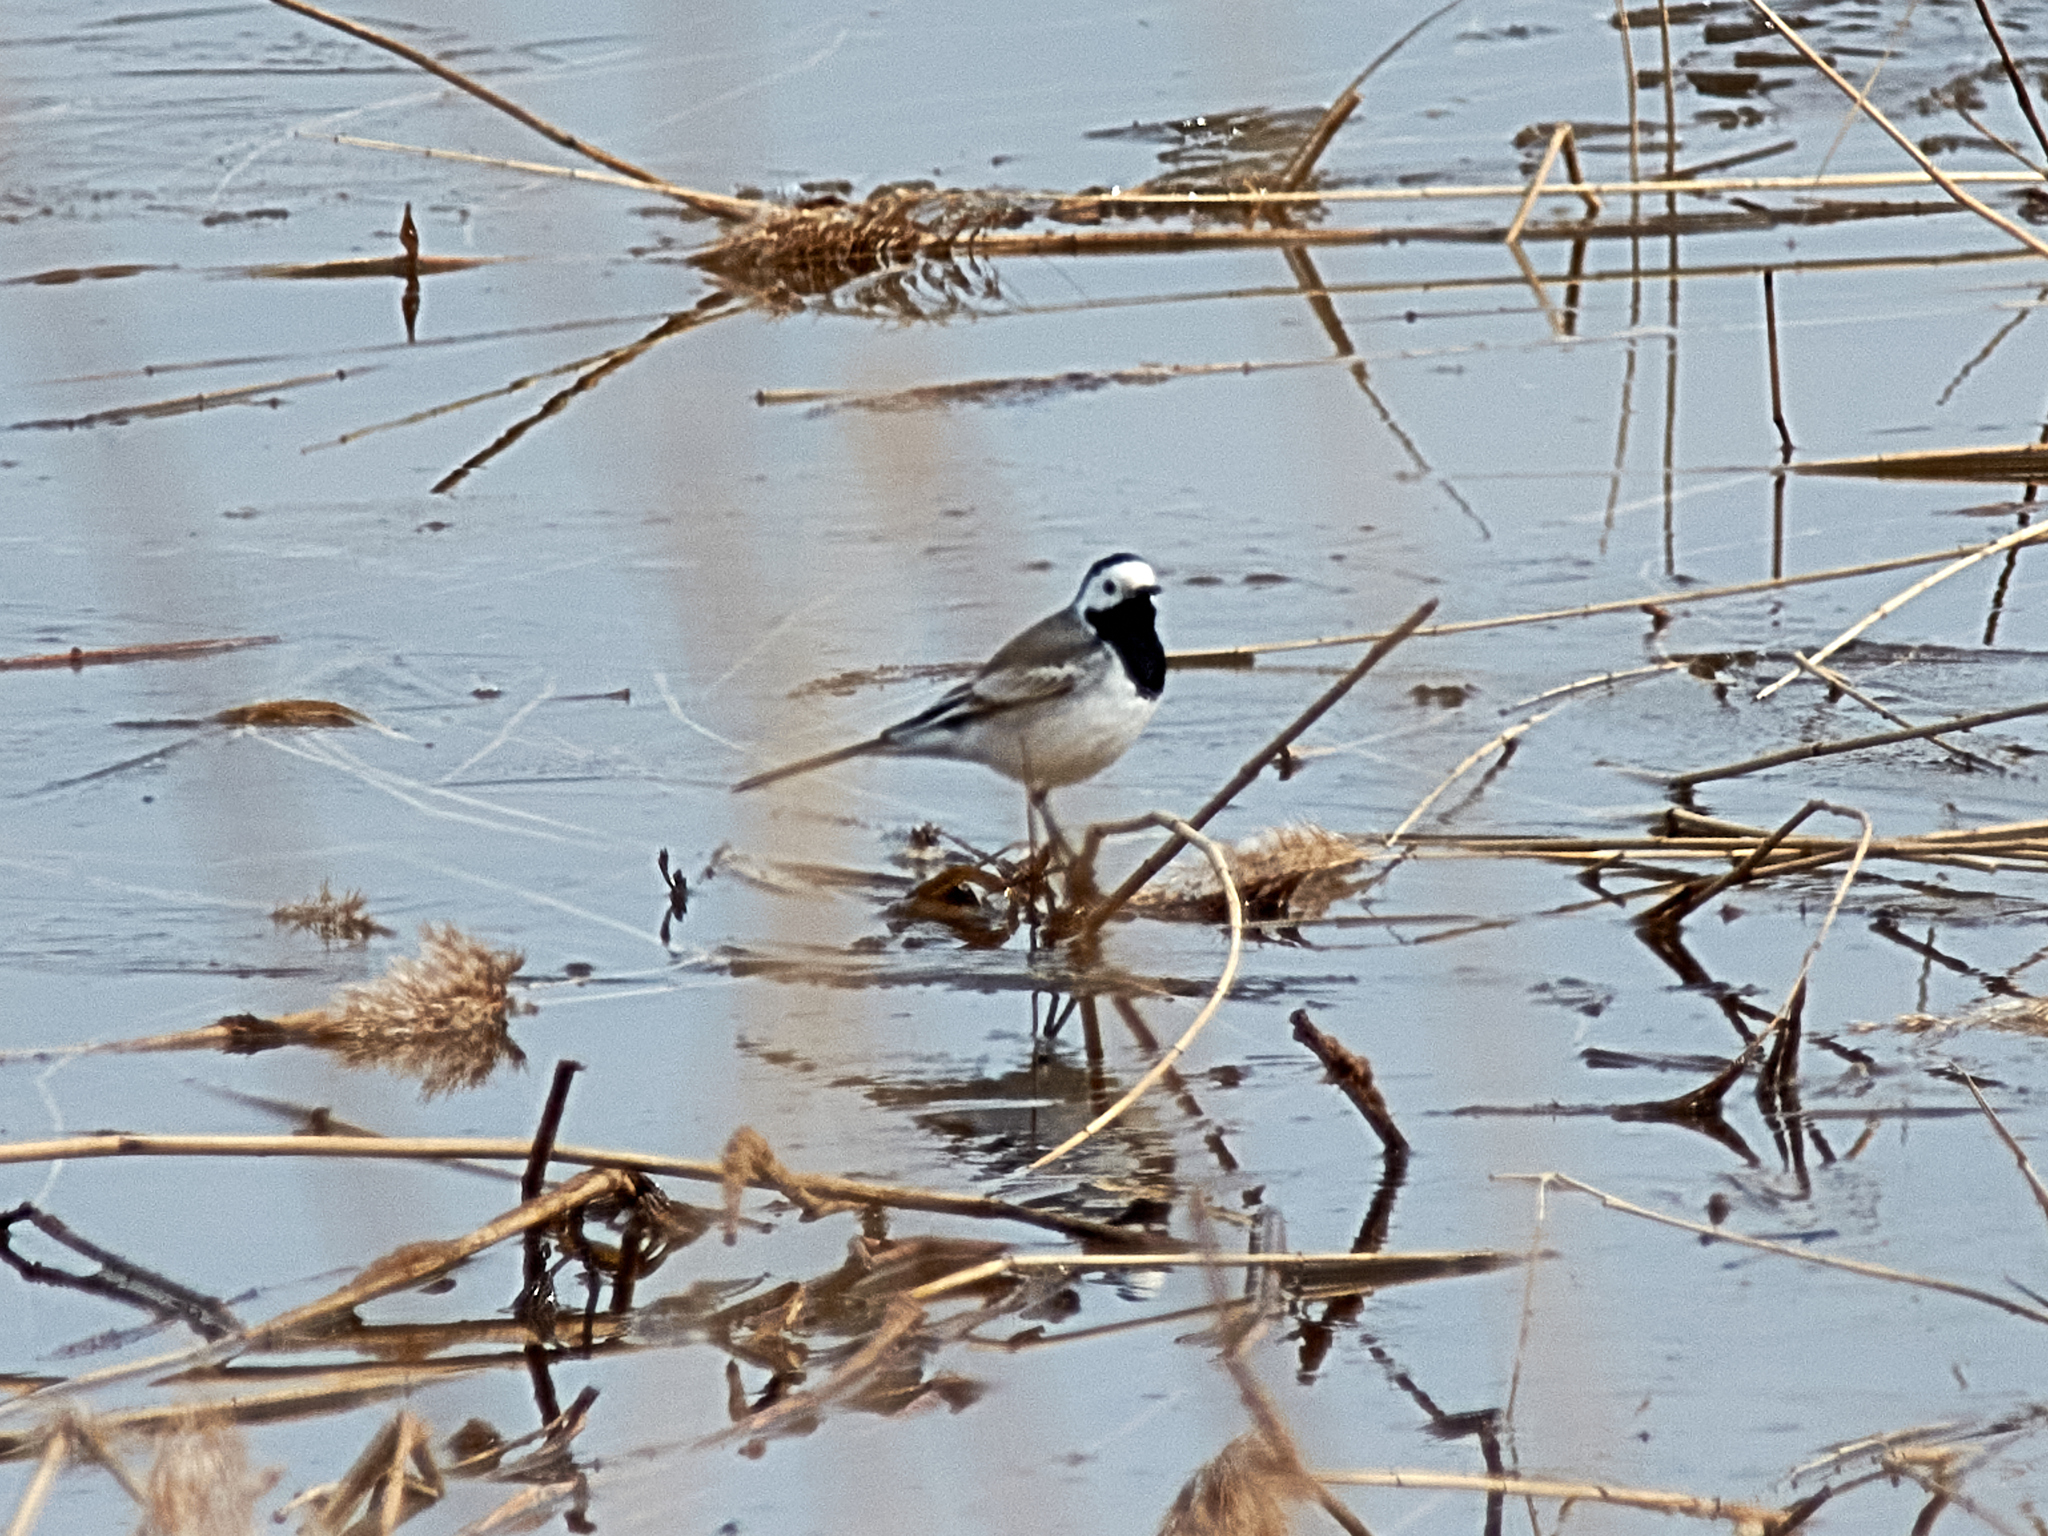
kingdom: Animalia
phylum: Chordata
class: Aves
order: Passeriformes
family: Motacillidae
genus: Motacilla
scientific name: Motacilla alba
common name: White wagtail
